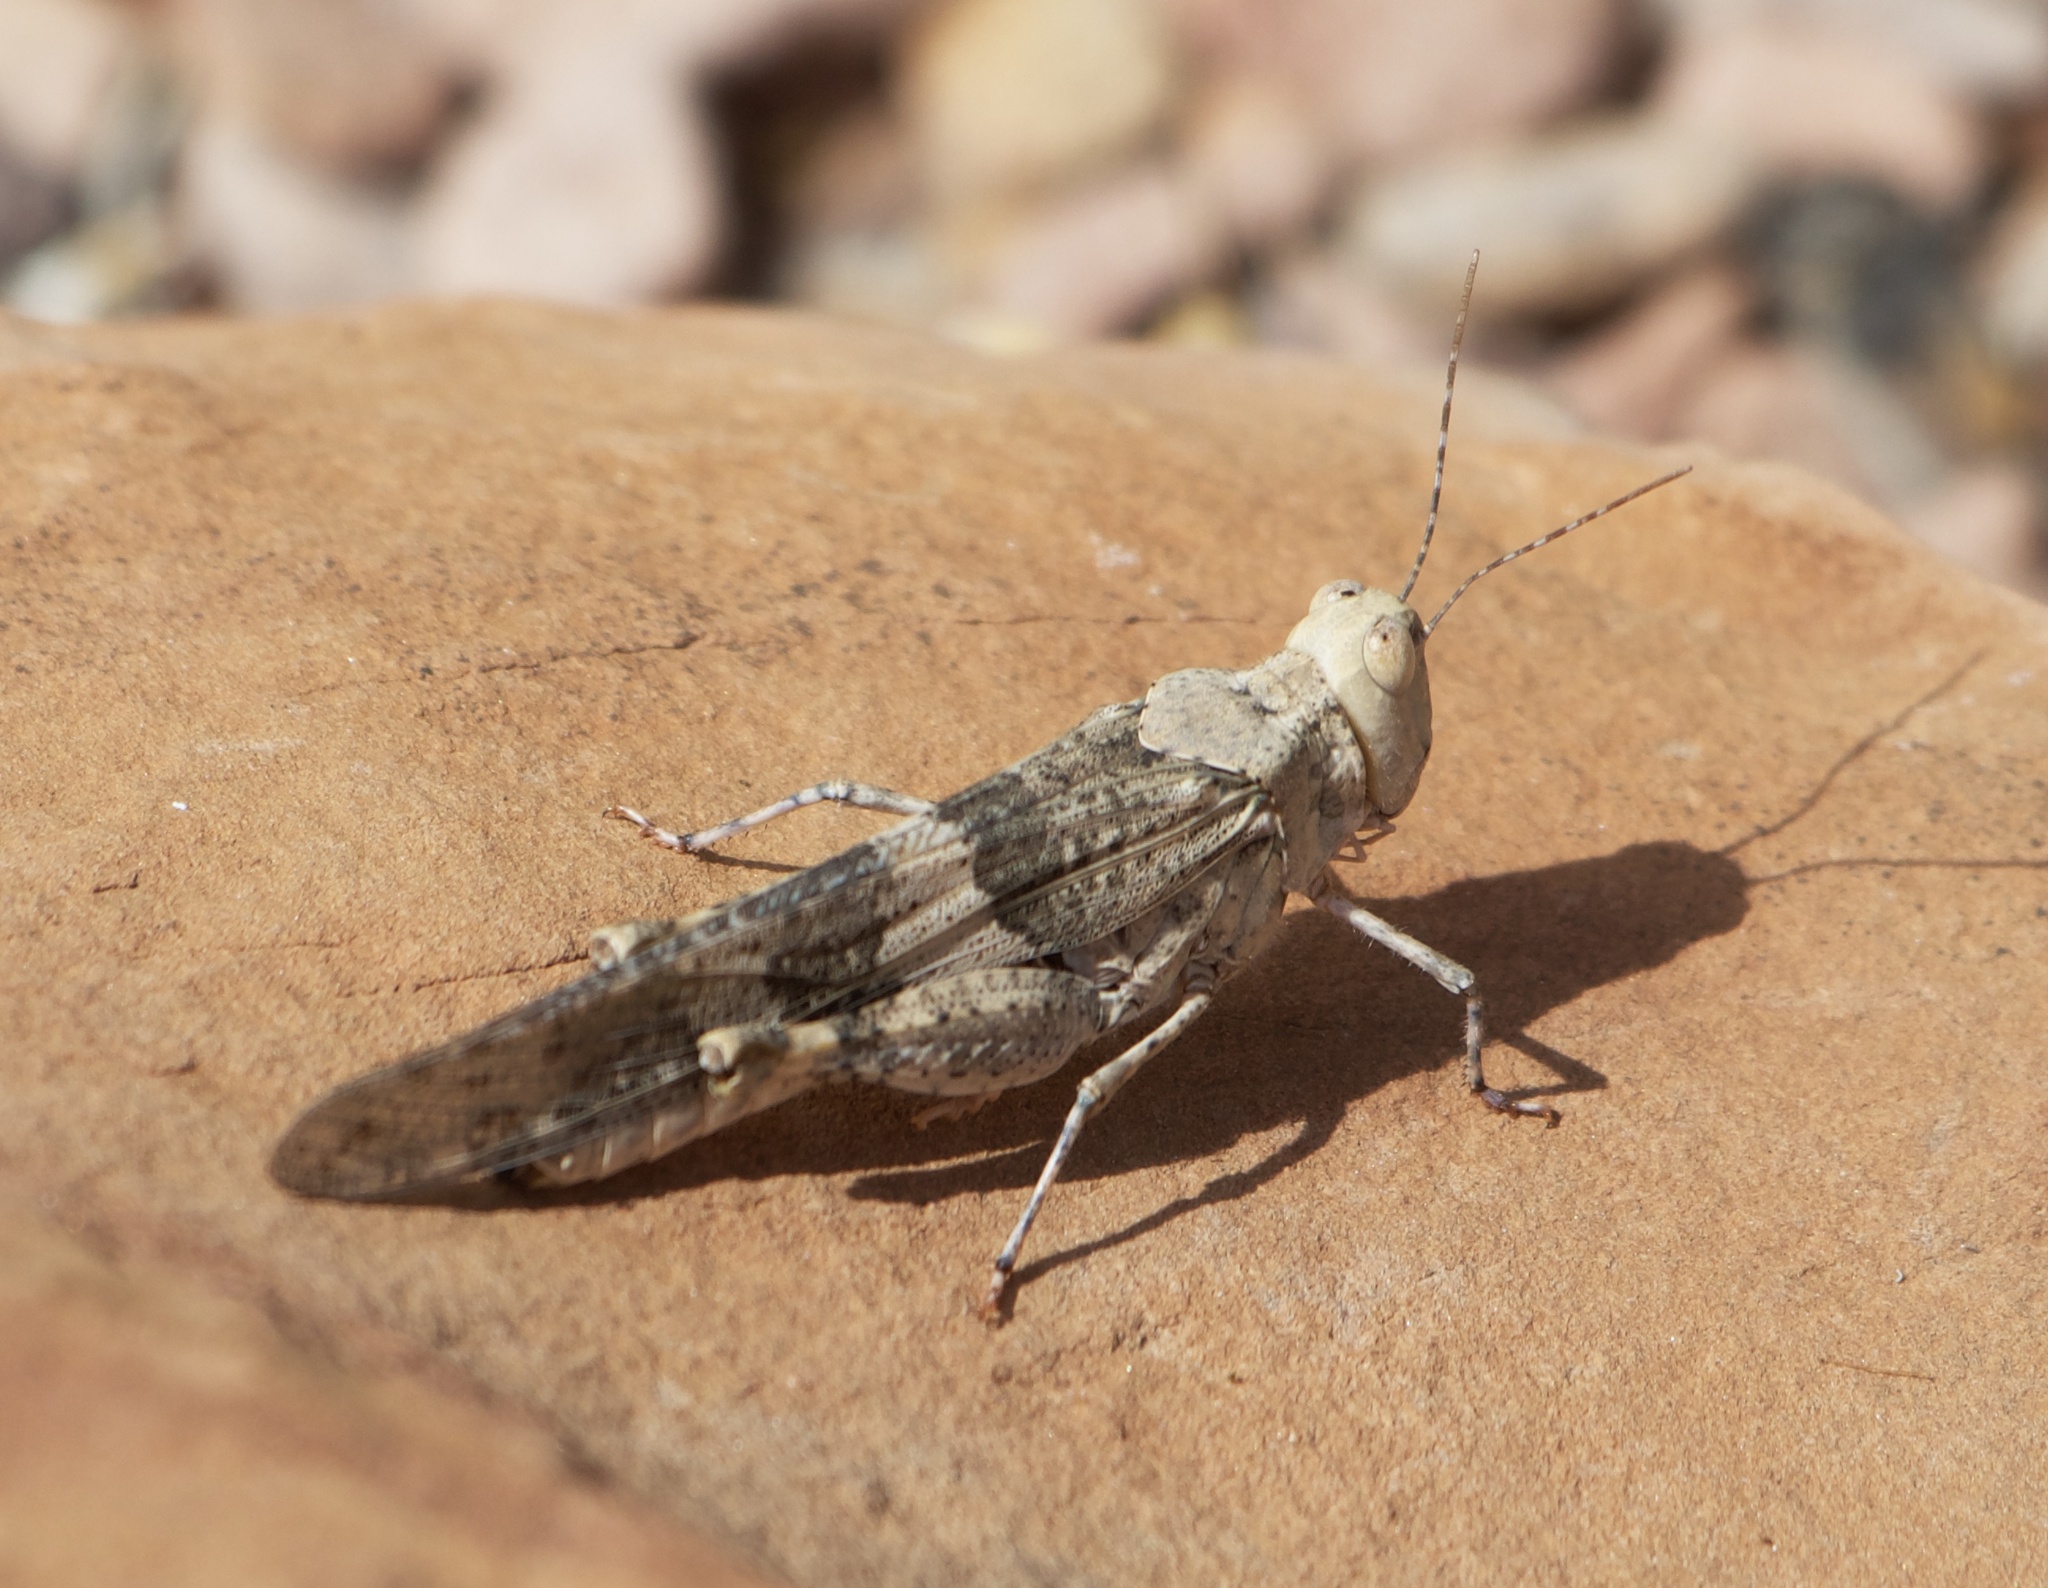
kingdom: Animalia
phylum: Arthropoda
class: Insecta
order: Orthoptera
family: Acrididae
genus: Trimerotropis
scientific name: Trimerotropis pallidipennis
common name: Pallid-winged grasshopper
